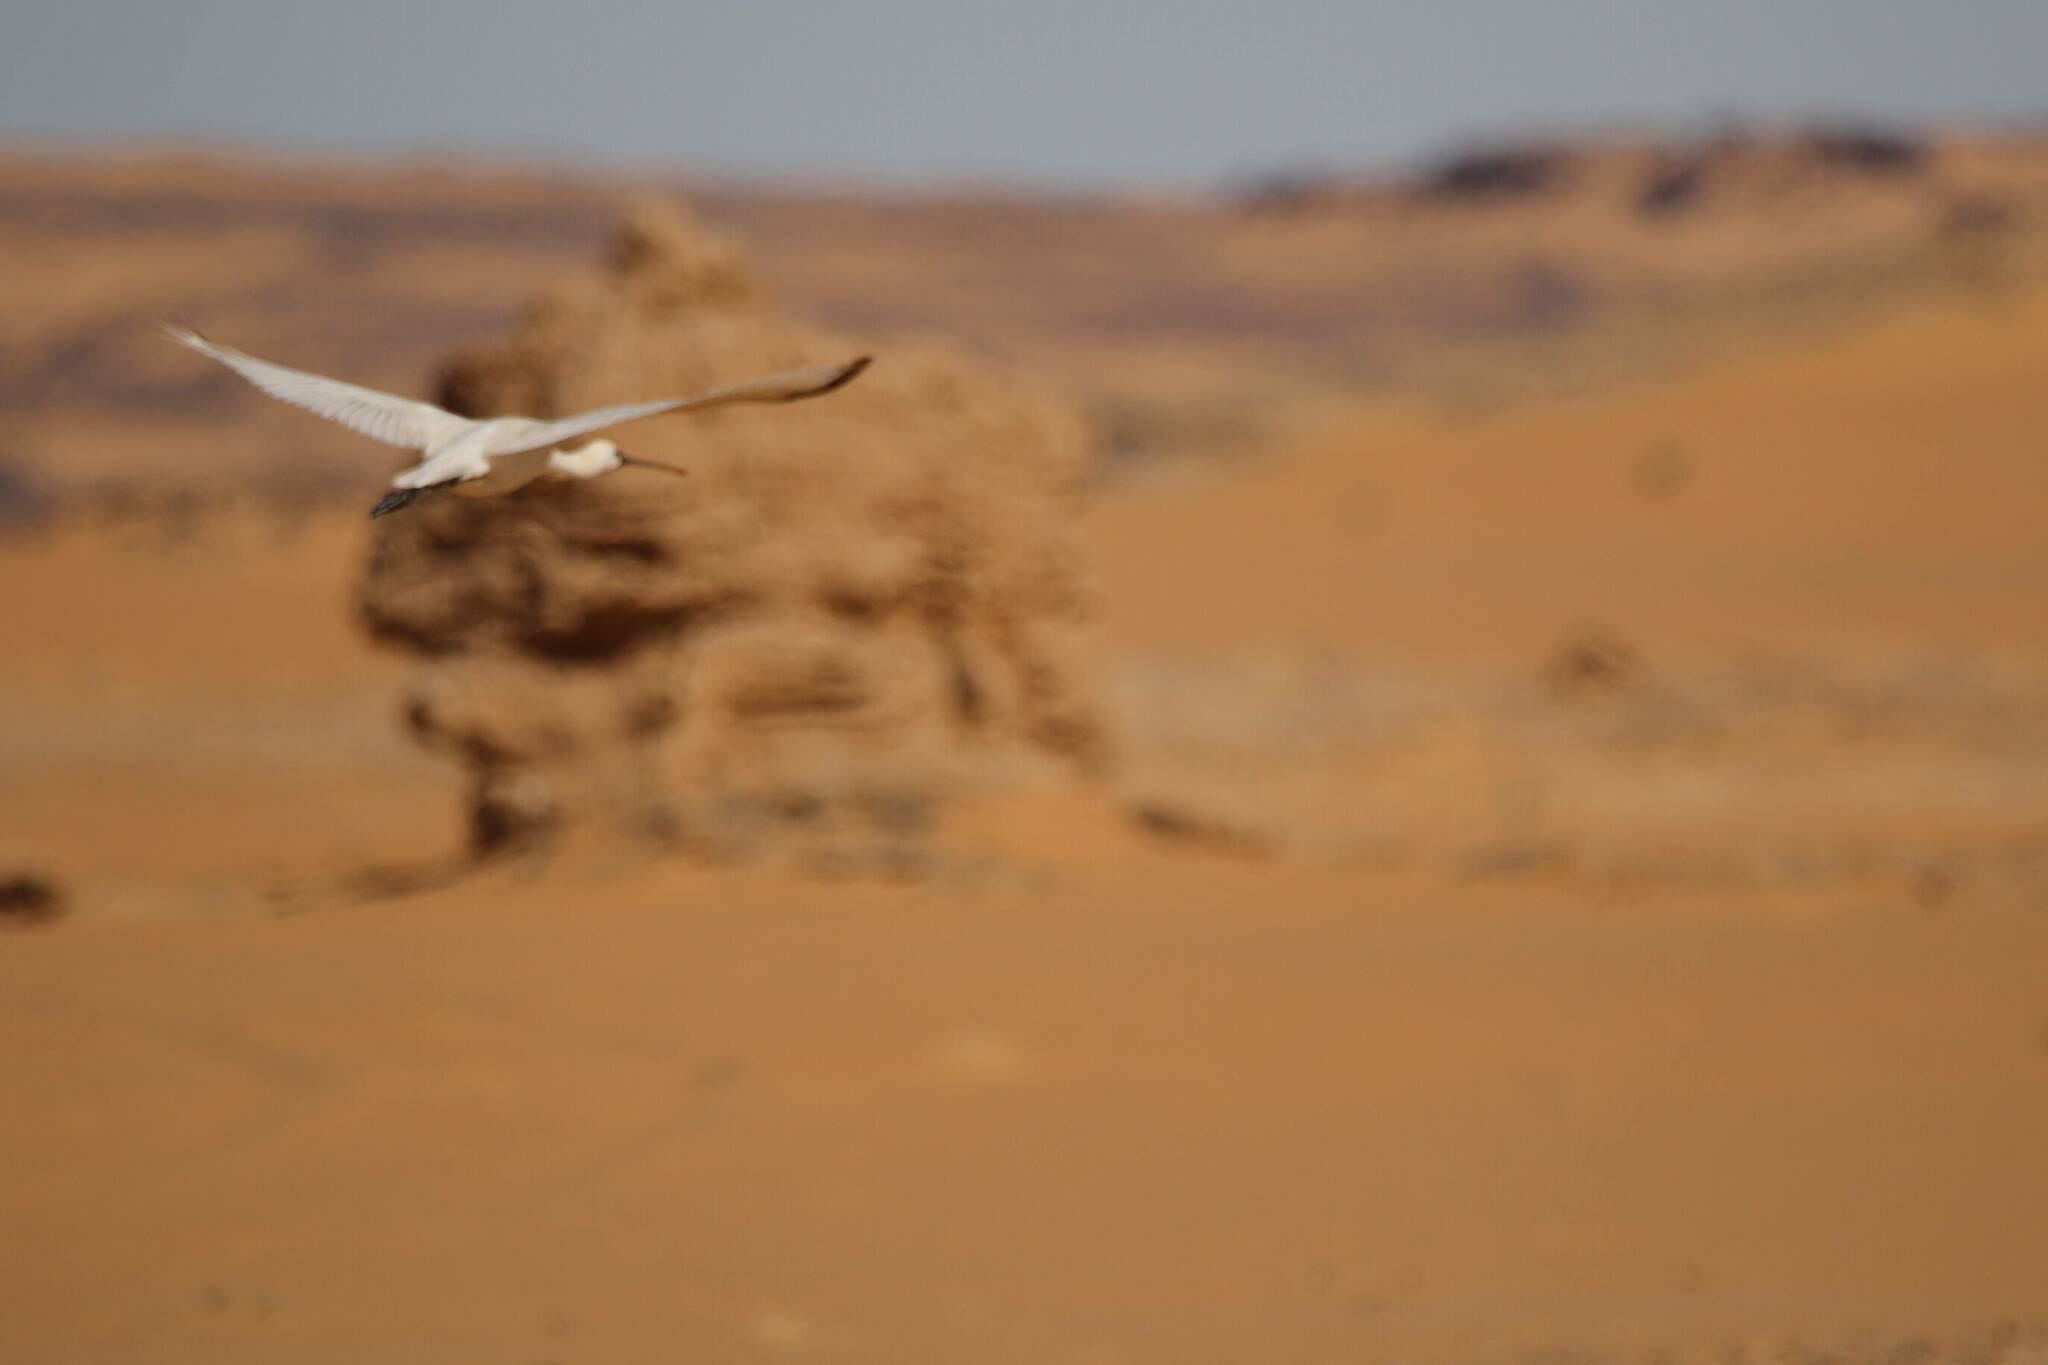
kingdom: Animalia
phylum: Chordata
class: Aves
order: Pelecaniformes
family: Threskiornithidae
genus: Platalea
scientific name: Platalea leucorodia
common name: Eurasian spoonbill
